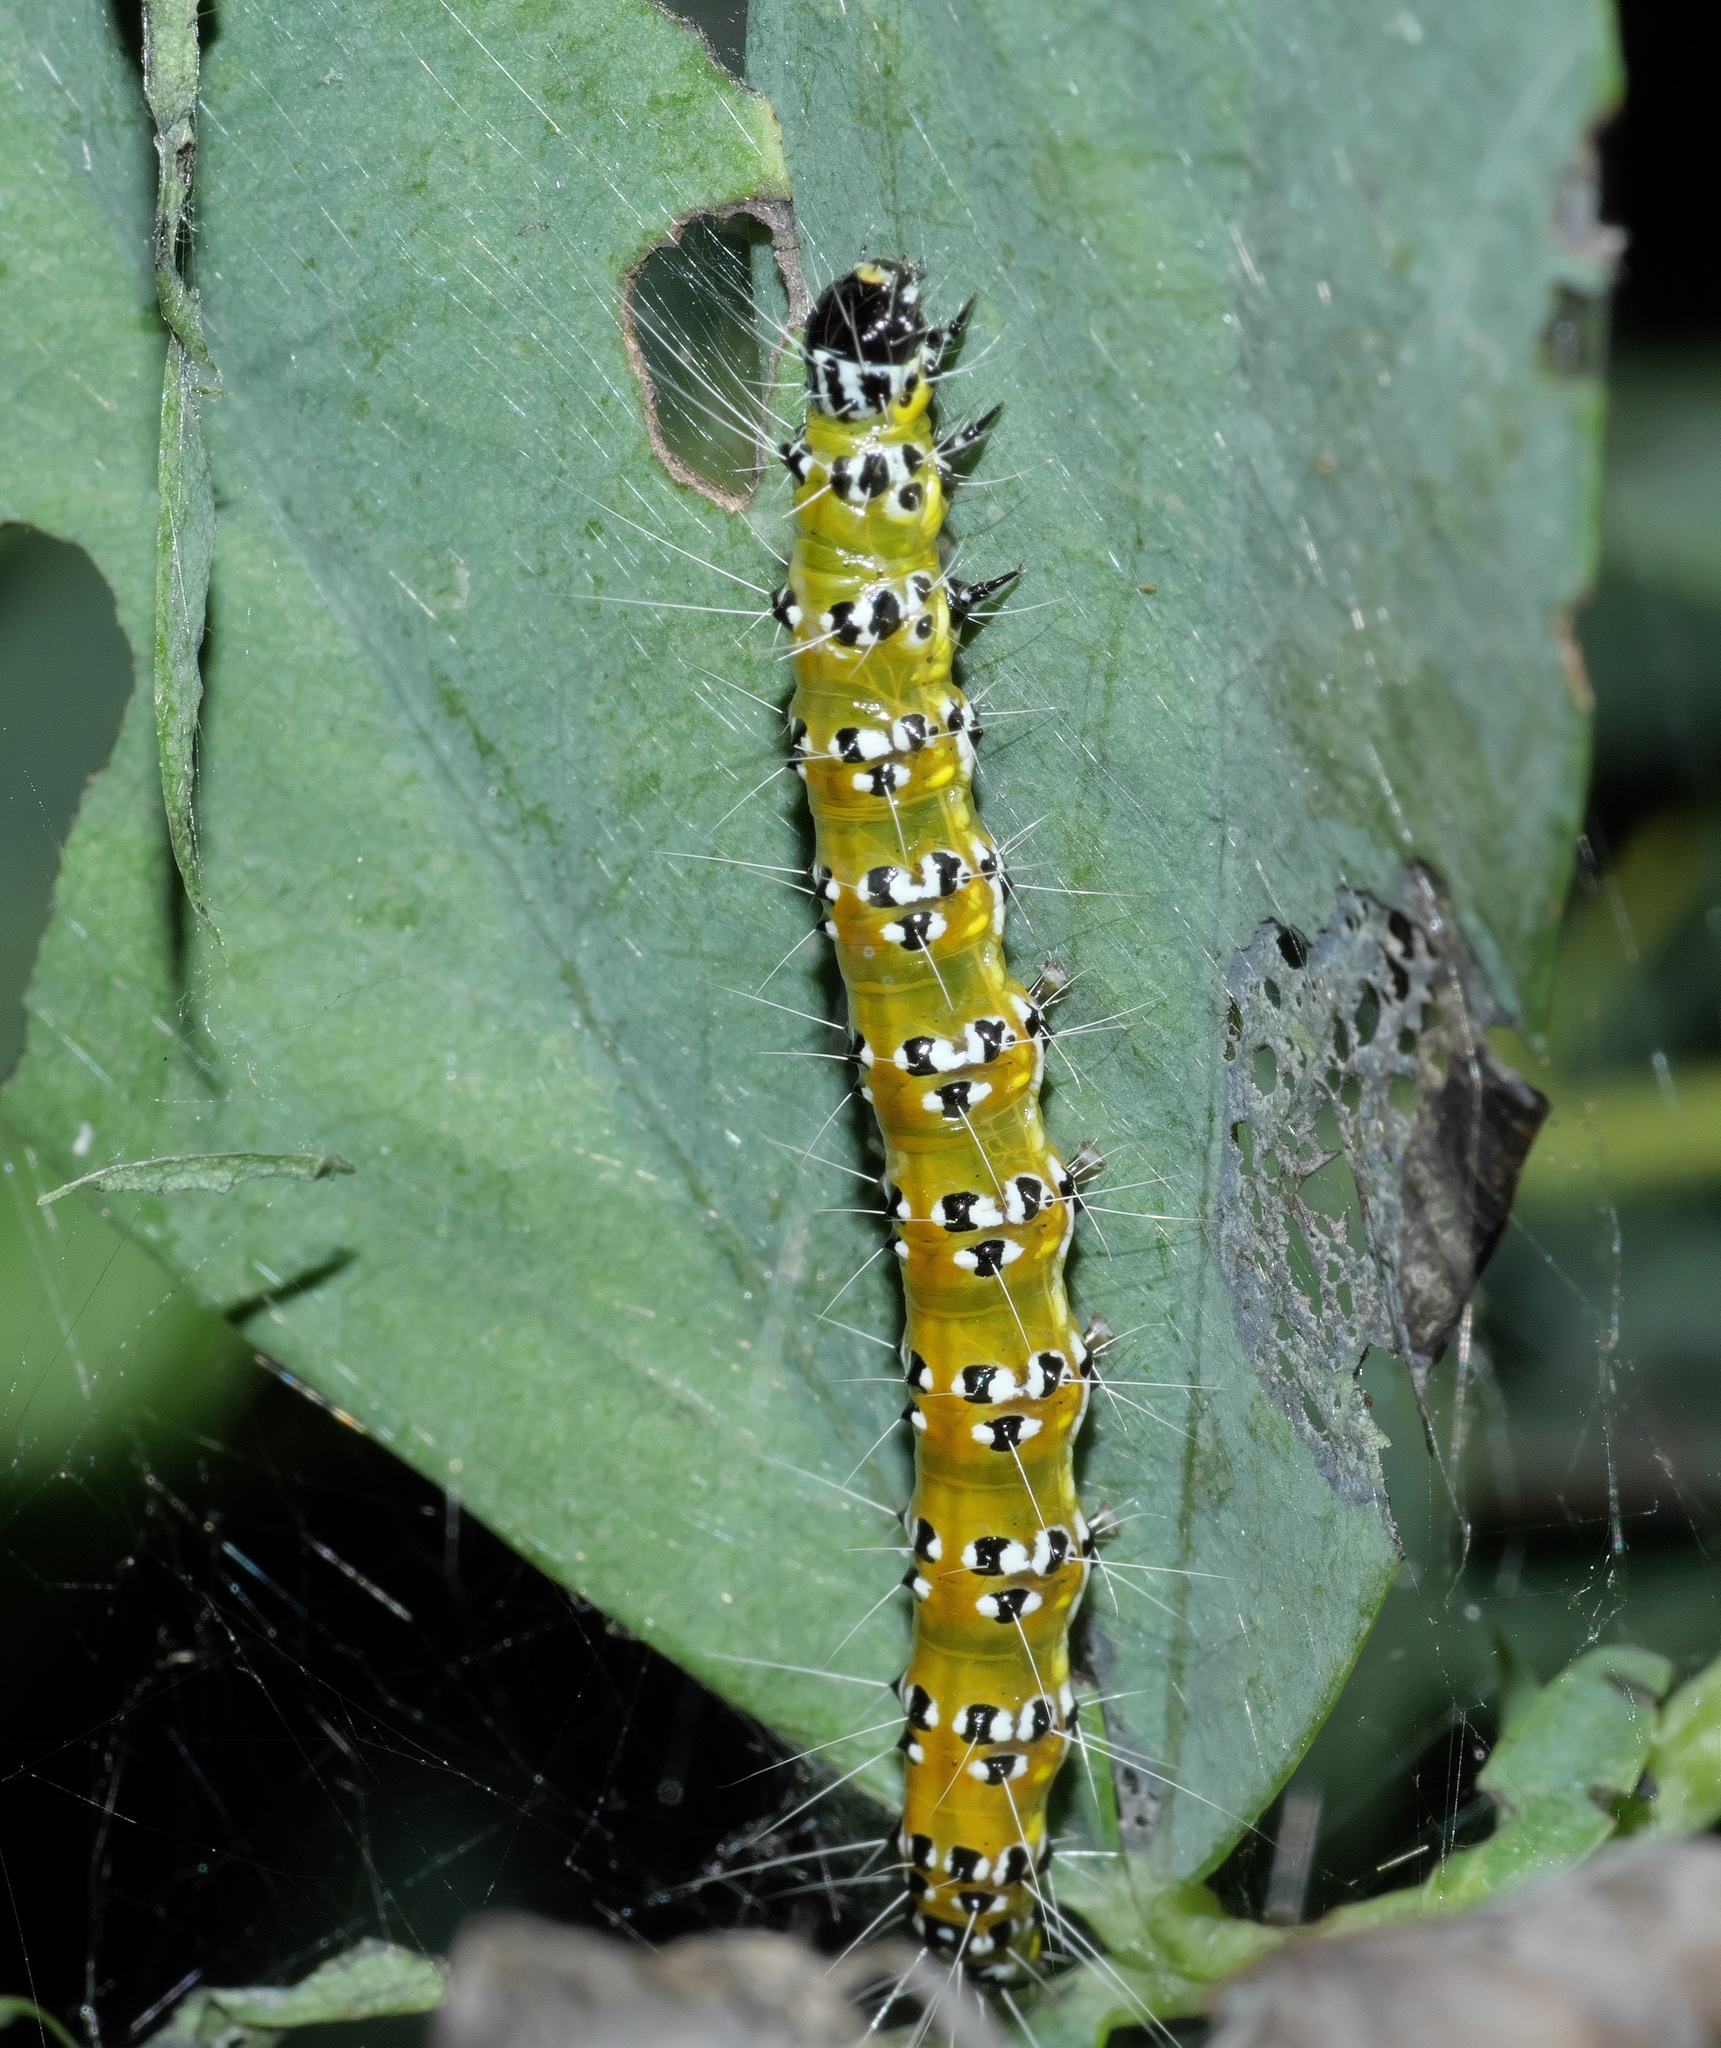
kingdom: Animalia
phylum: Arthropoda
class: Insecta
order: Lepidoptera
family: Crambidae
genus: Uresiphita
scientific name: Uresiphita reversalis
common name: Genista broom moth
